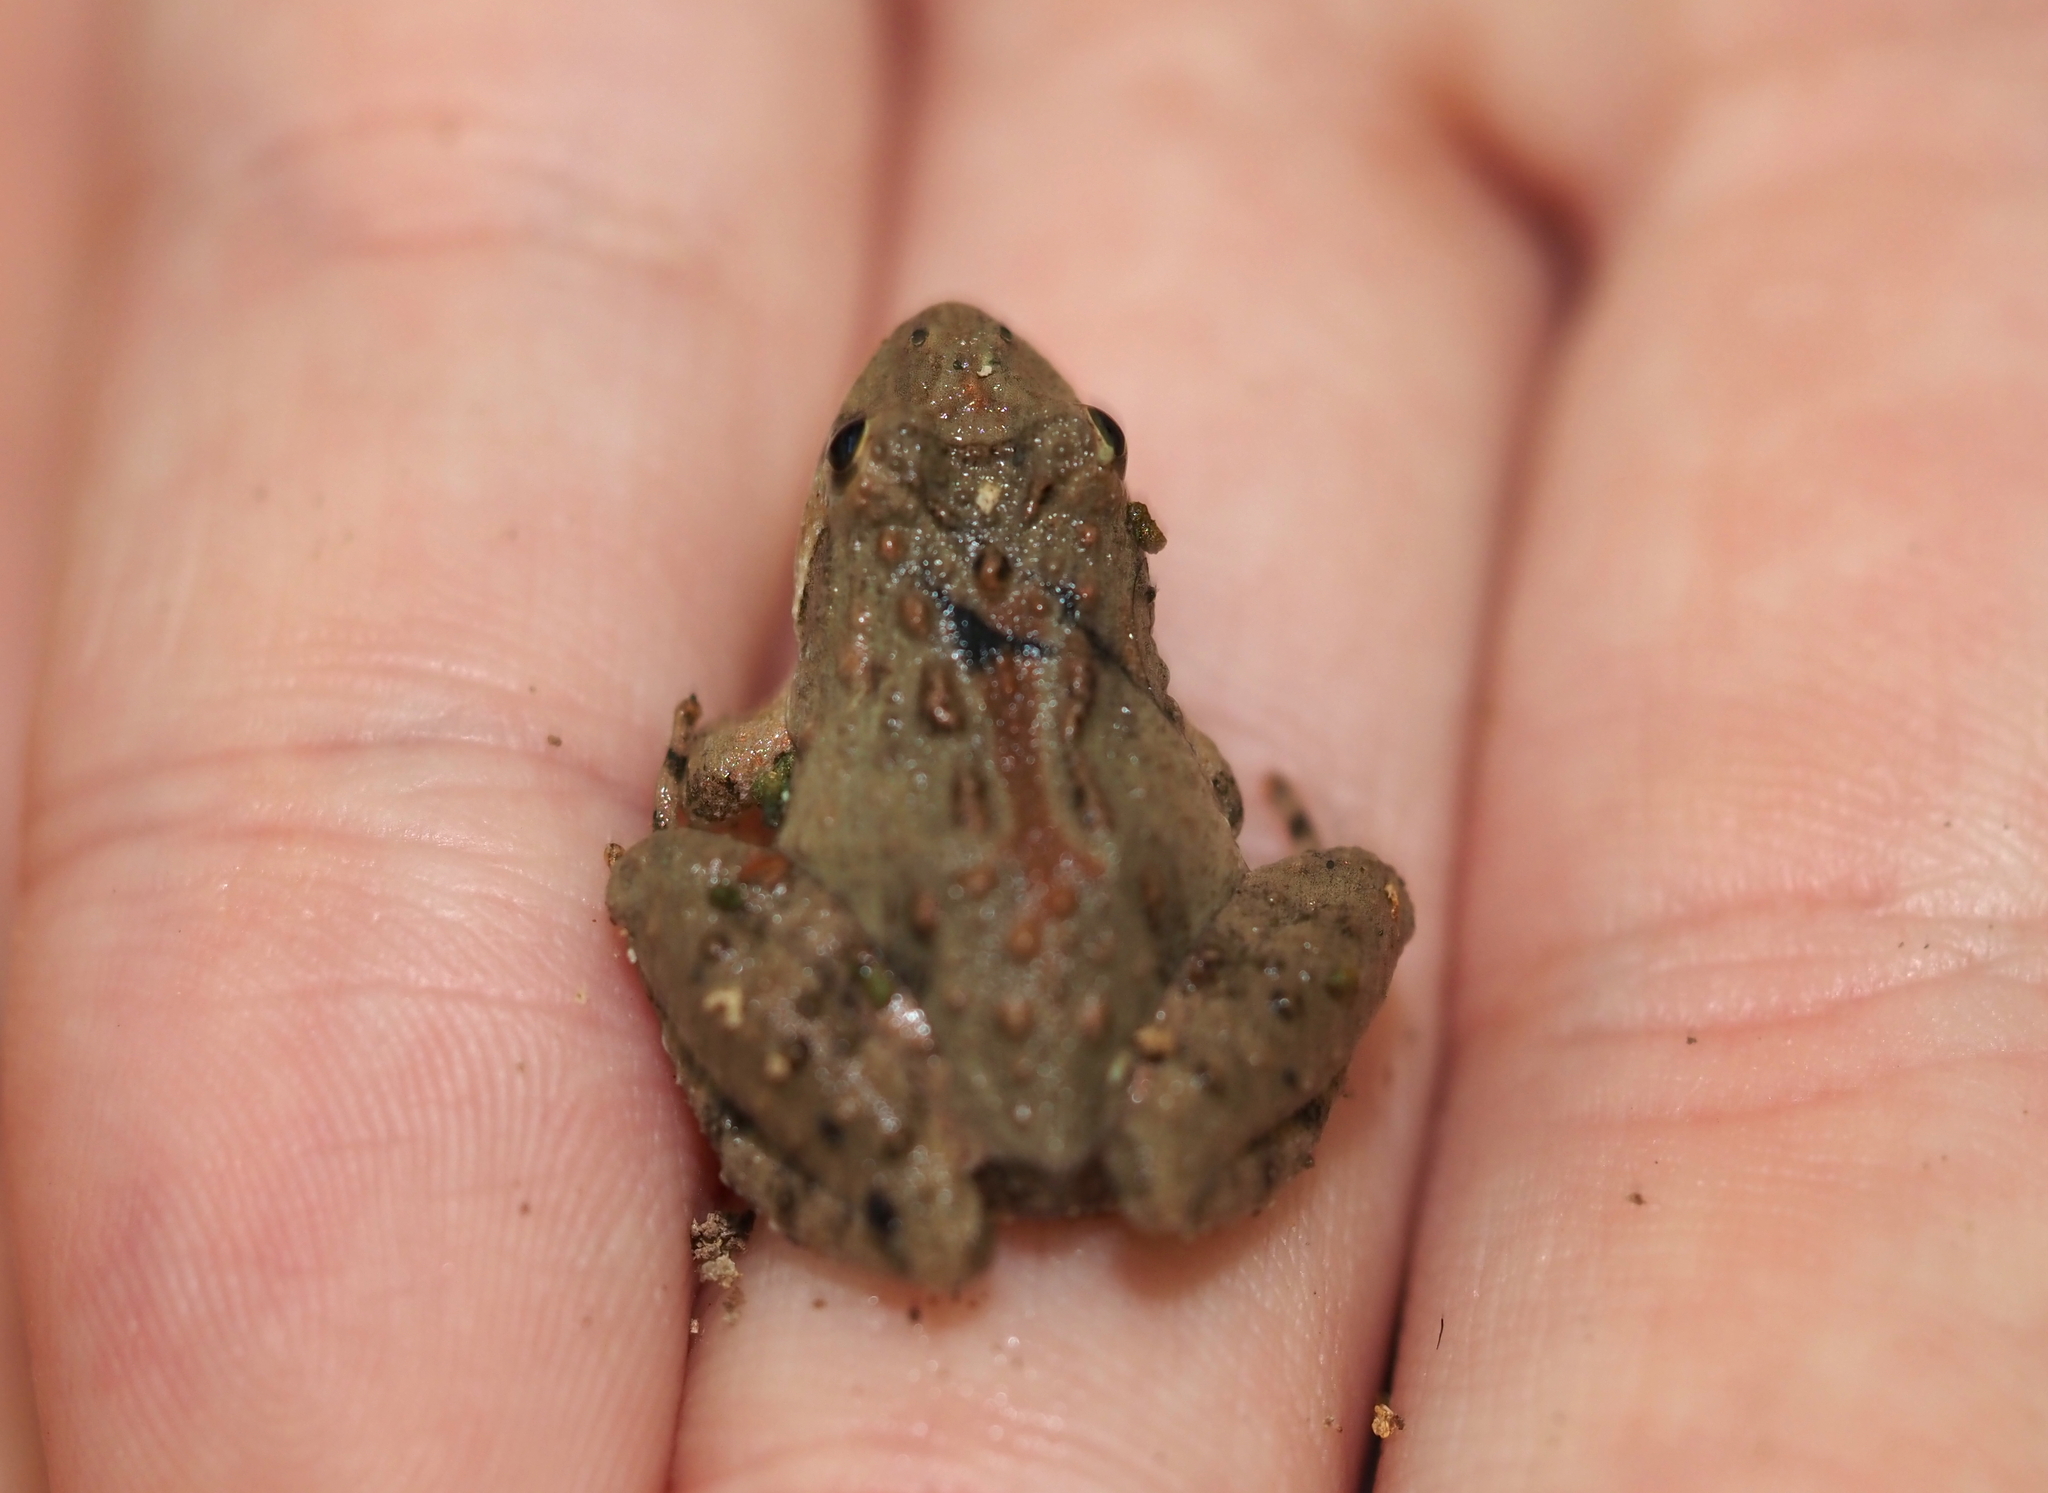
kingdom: Animalia
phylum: Chordata
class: Amphibia
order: Anura
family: Hylidae
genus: Acris
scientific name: Acris crepitans
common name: Northern cricket frog
